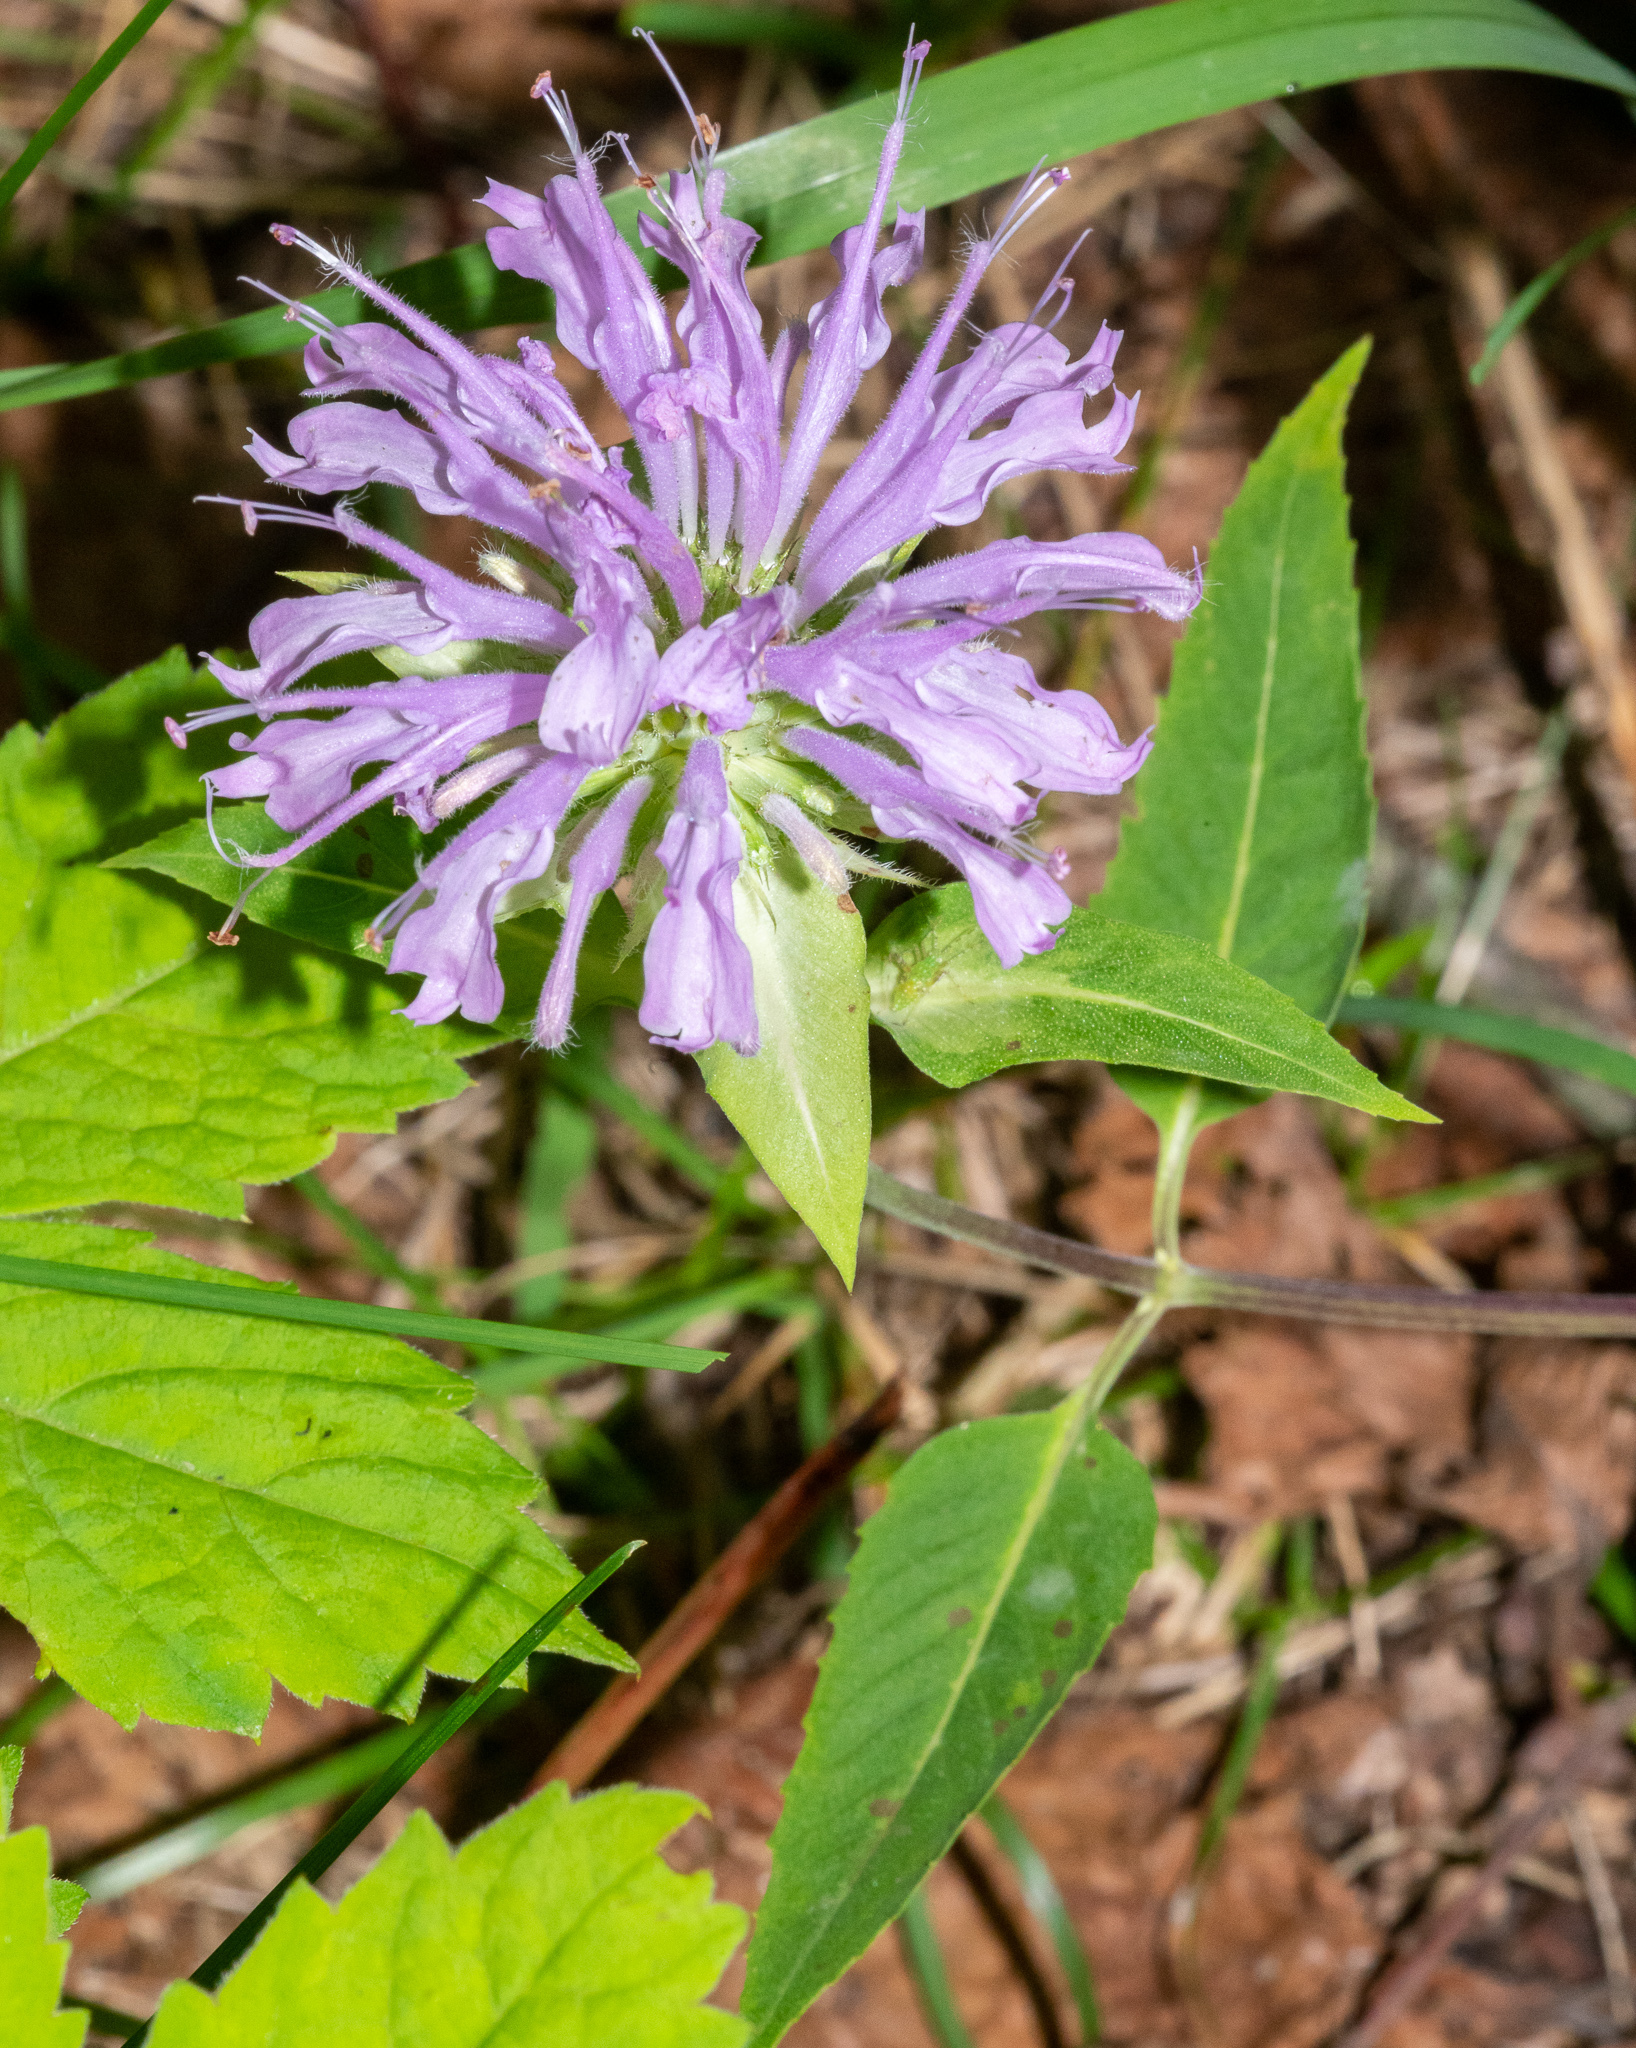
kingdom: Plantae
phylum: Tracheophyta
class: Magnoliopsida
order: Lamiales
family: Lamiaceae
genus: Monarda
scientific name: Monarda fistulosa
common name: Purple beebalm
